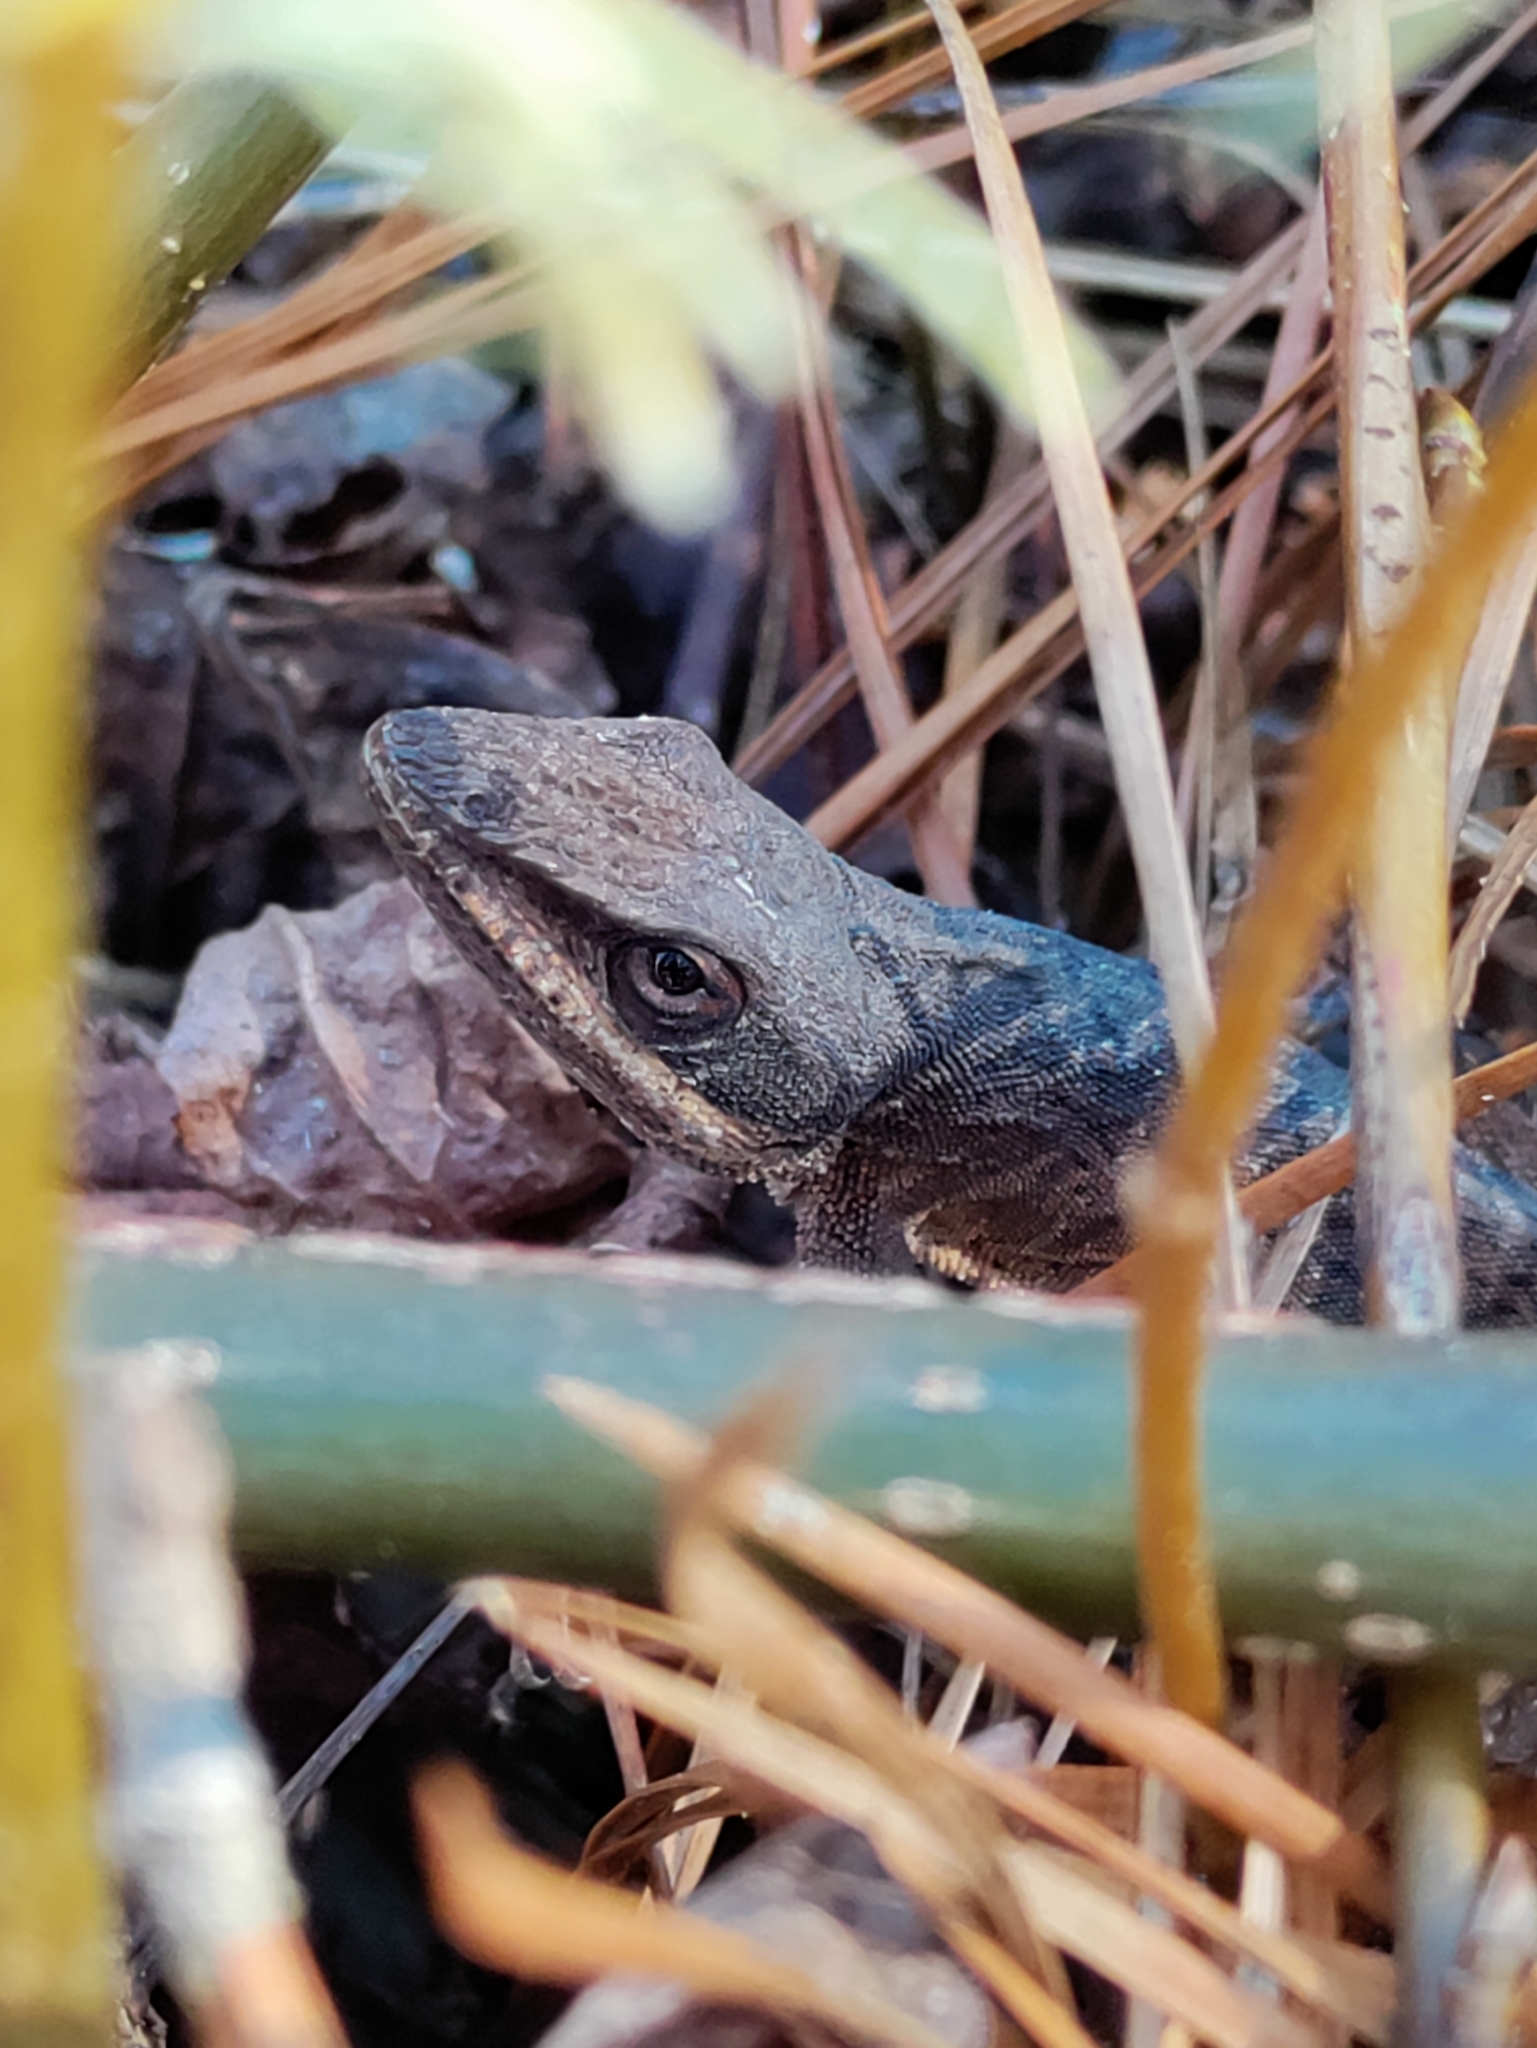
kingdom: Animalia
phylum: Chordata
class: Squamata
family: Dactyloidae
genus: Anolis
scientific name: Anolis carolinensis
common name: Green anole
